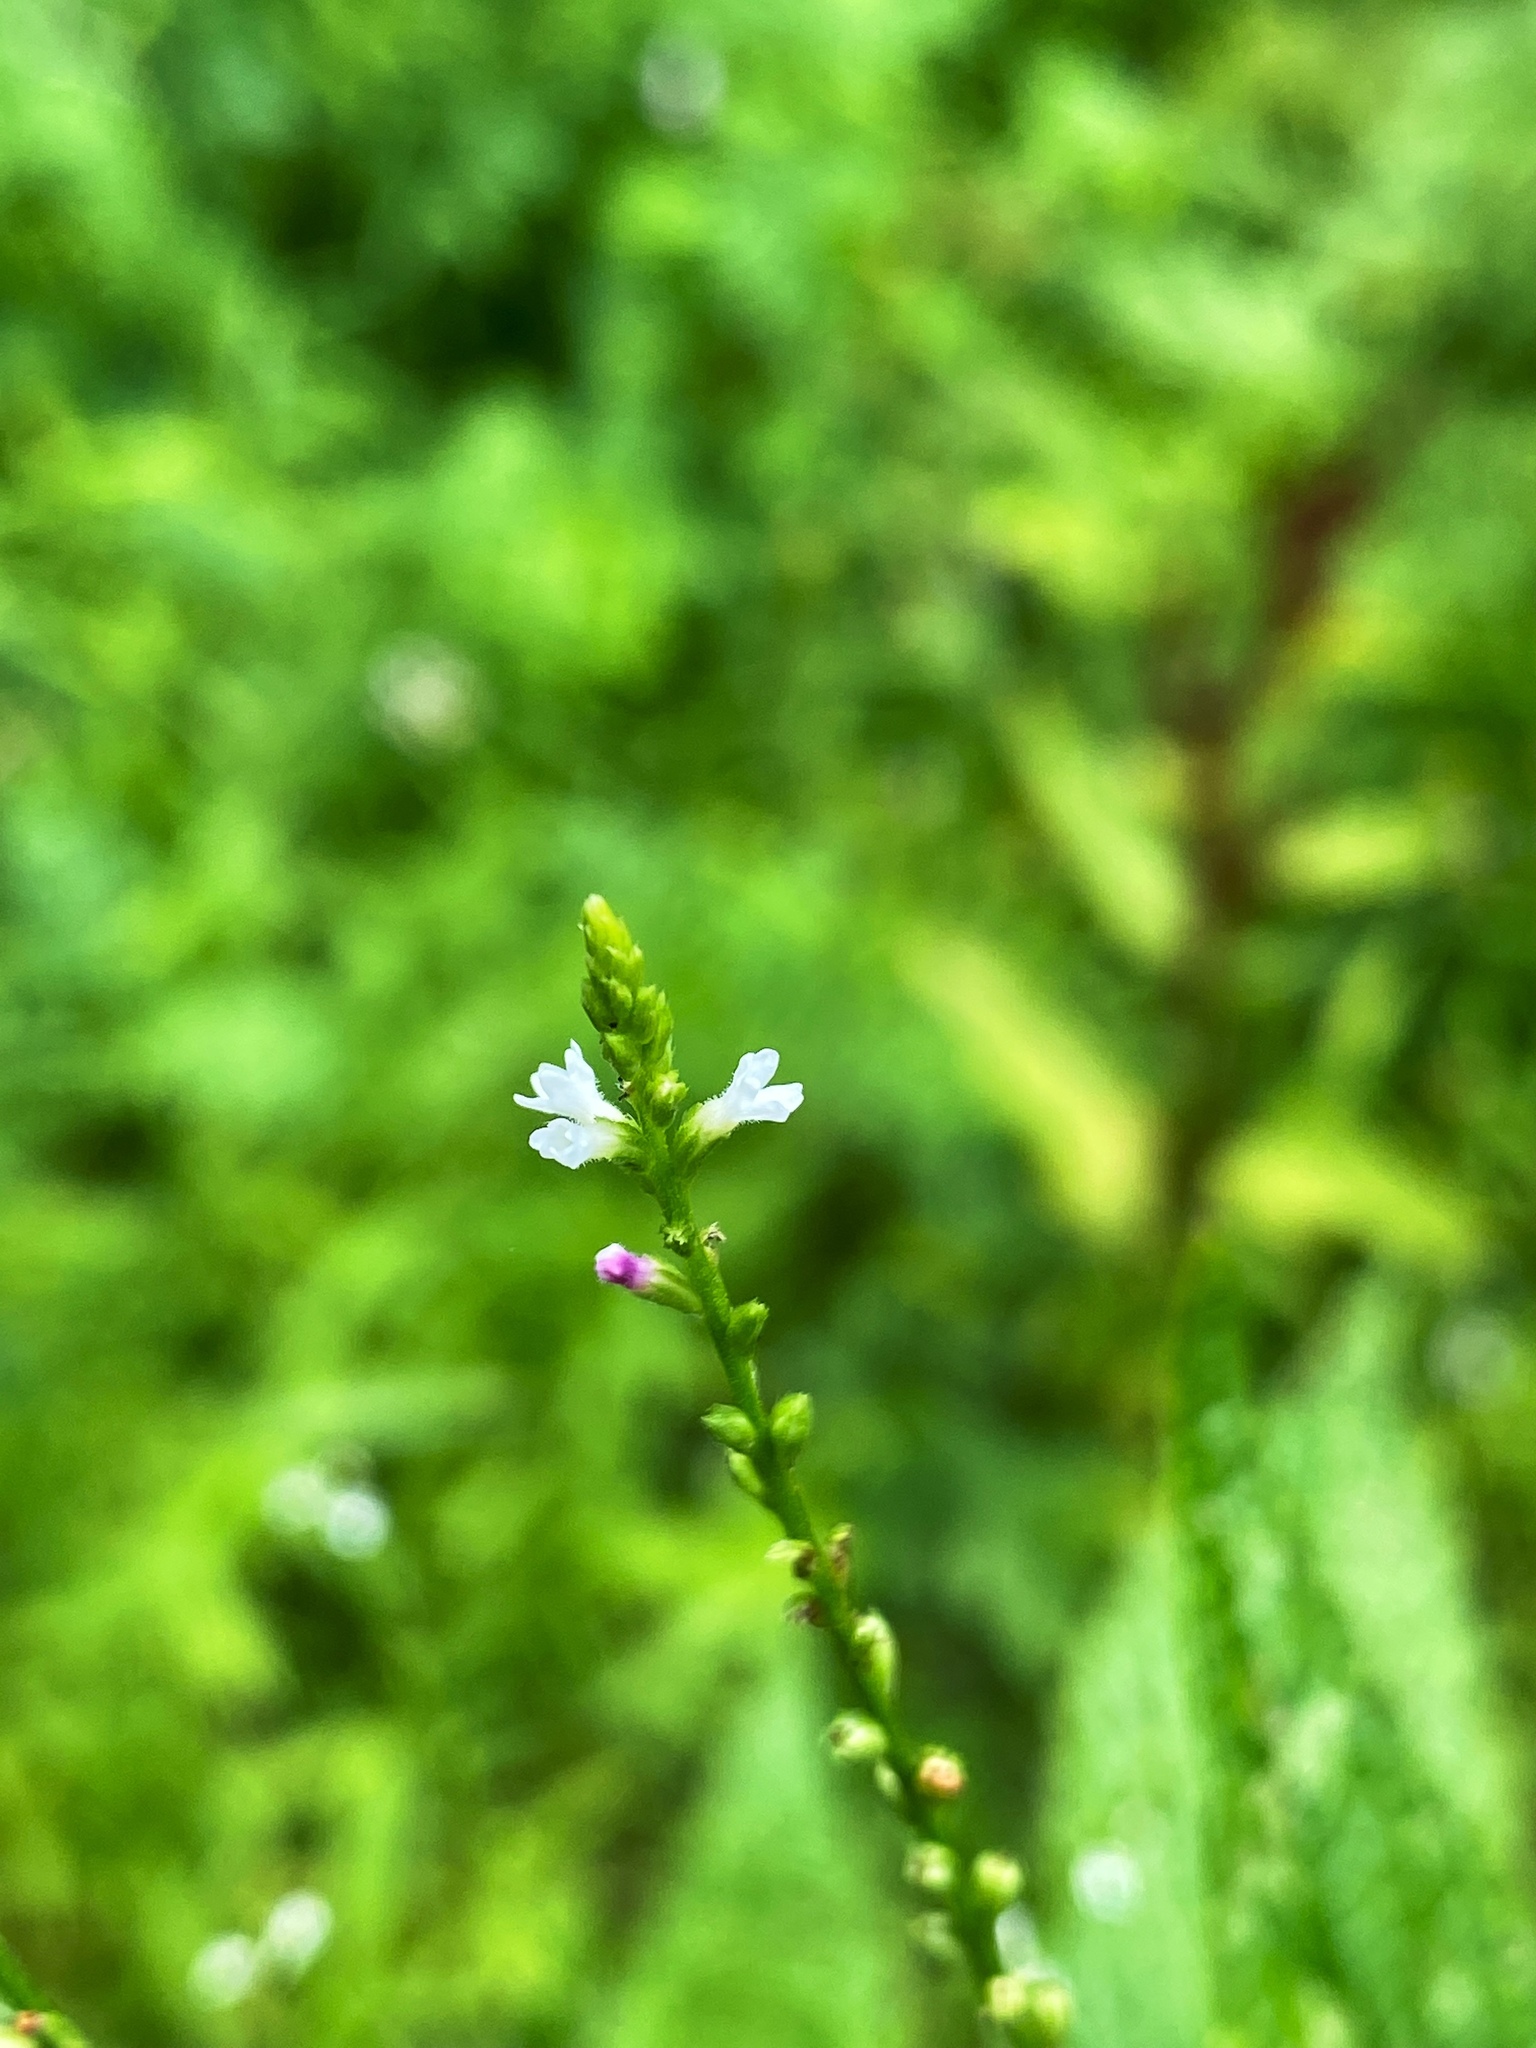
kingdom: Plantae
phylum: Tracheophyta
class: Magnoliopsida
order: Lamiales
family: Verbenaceae
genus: Verbena
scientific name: Verbena urticifolia
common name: Nettle-leaved vervain
